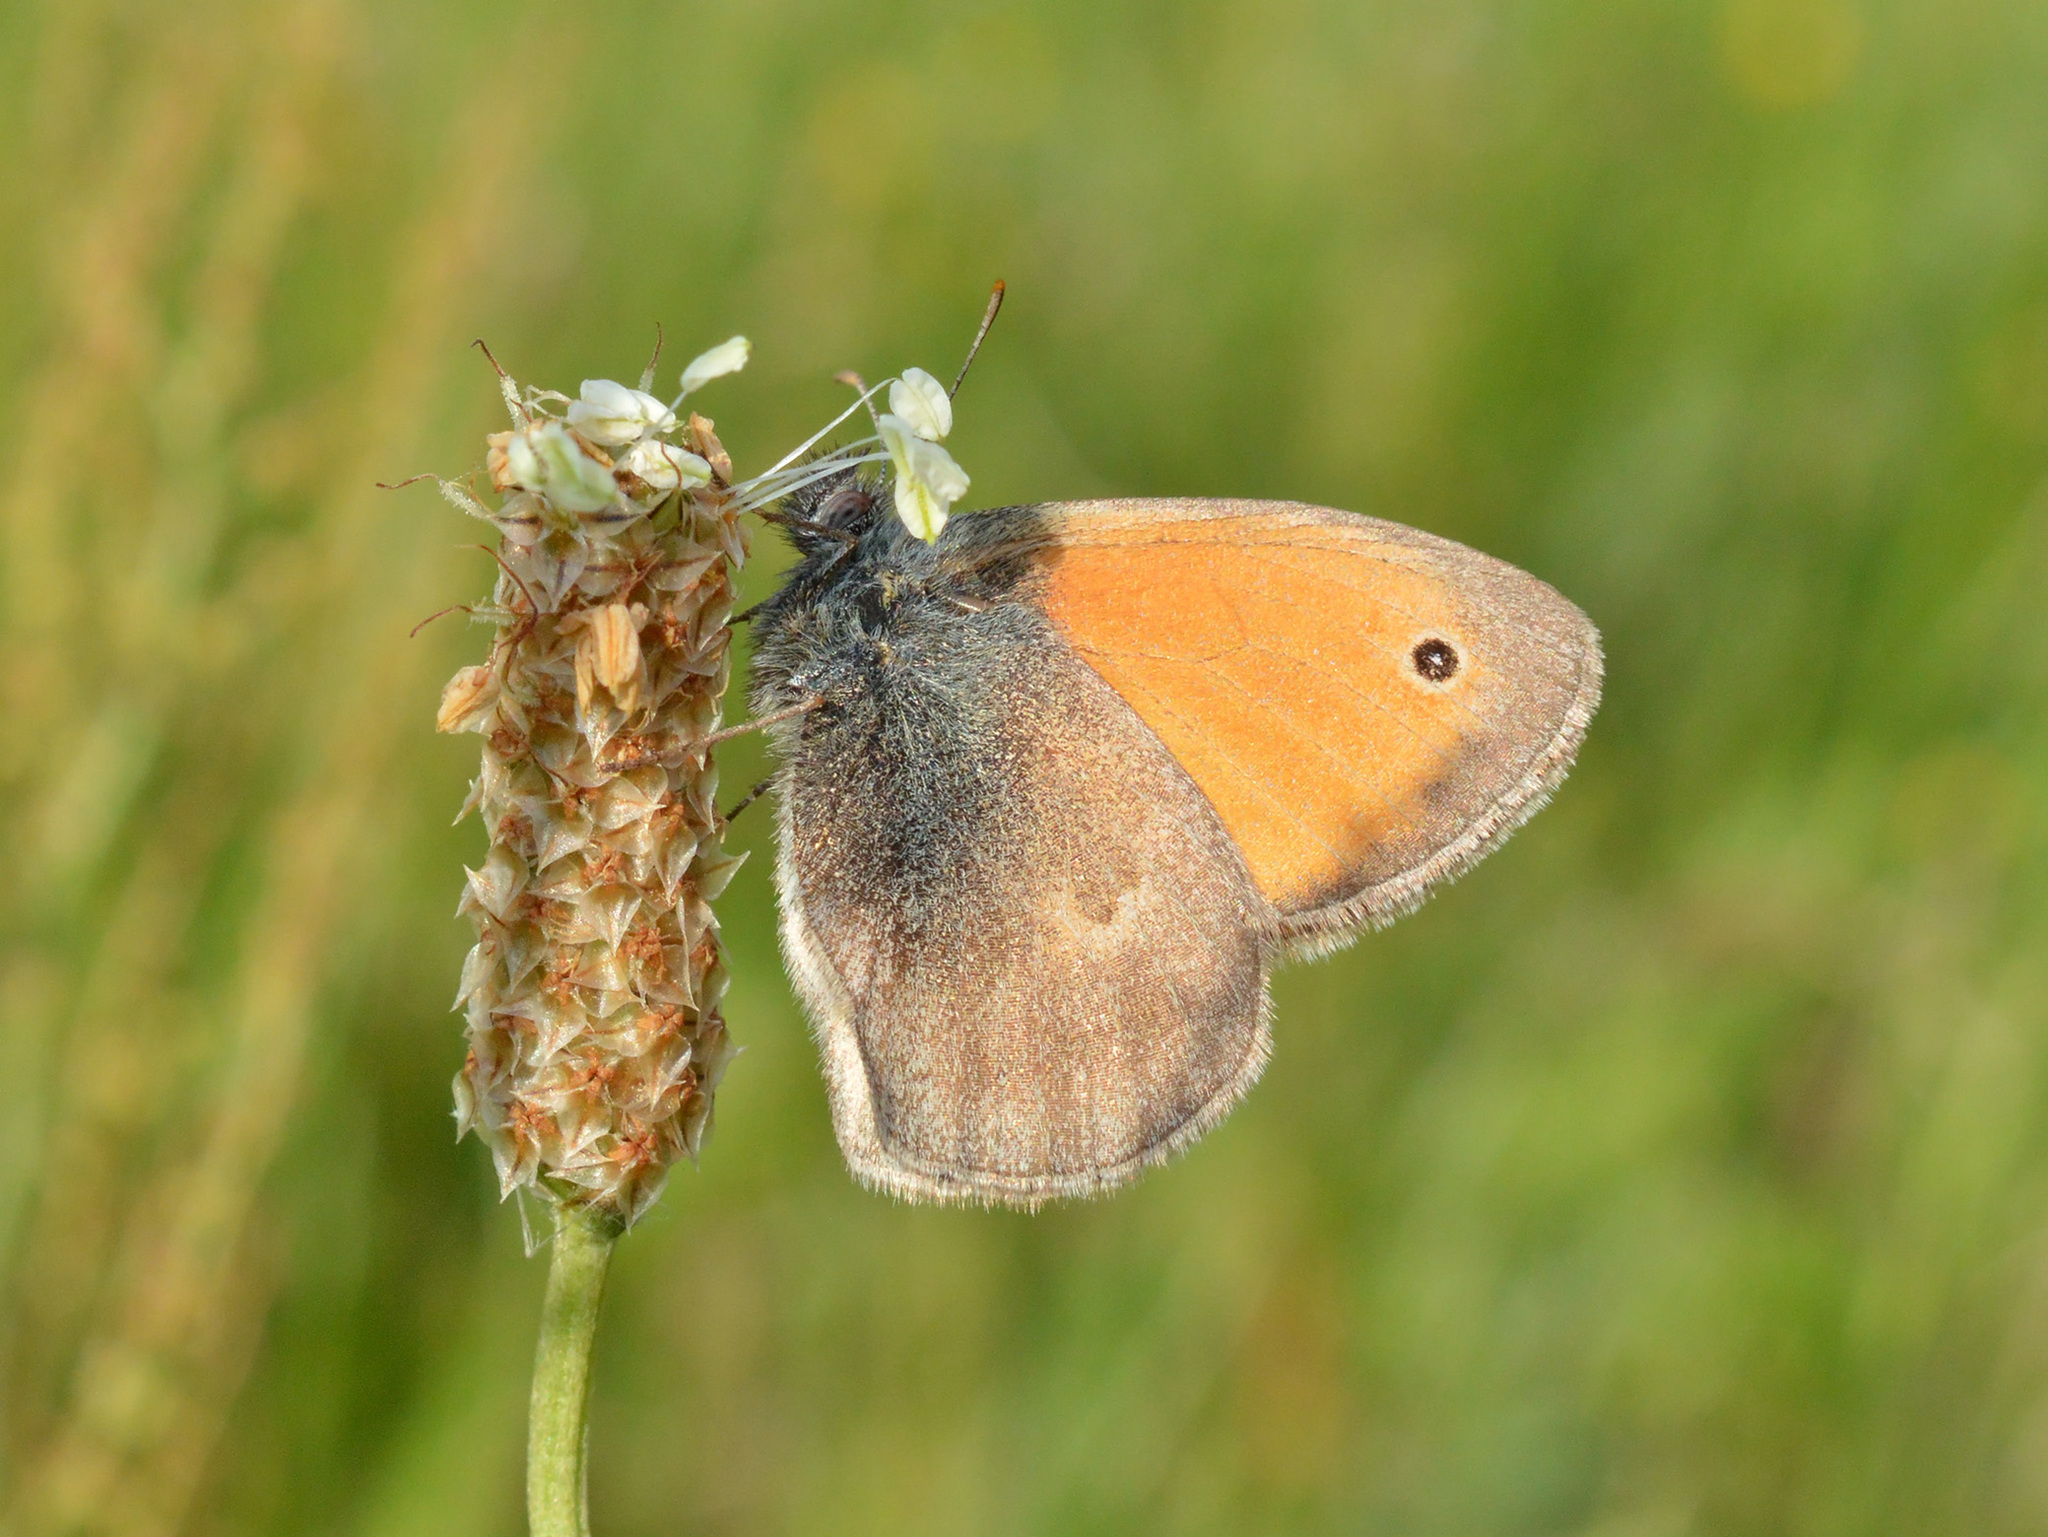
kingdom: Animalia
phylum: Arthropoda
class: Insecta
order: Lepidoptera
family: Nymphalidae
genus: Coenonympha
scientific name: Coenonympha pamphilus
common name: Small heath
